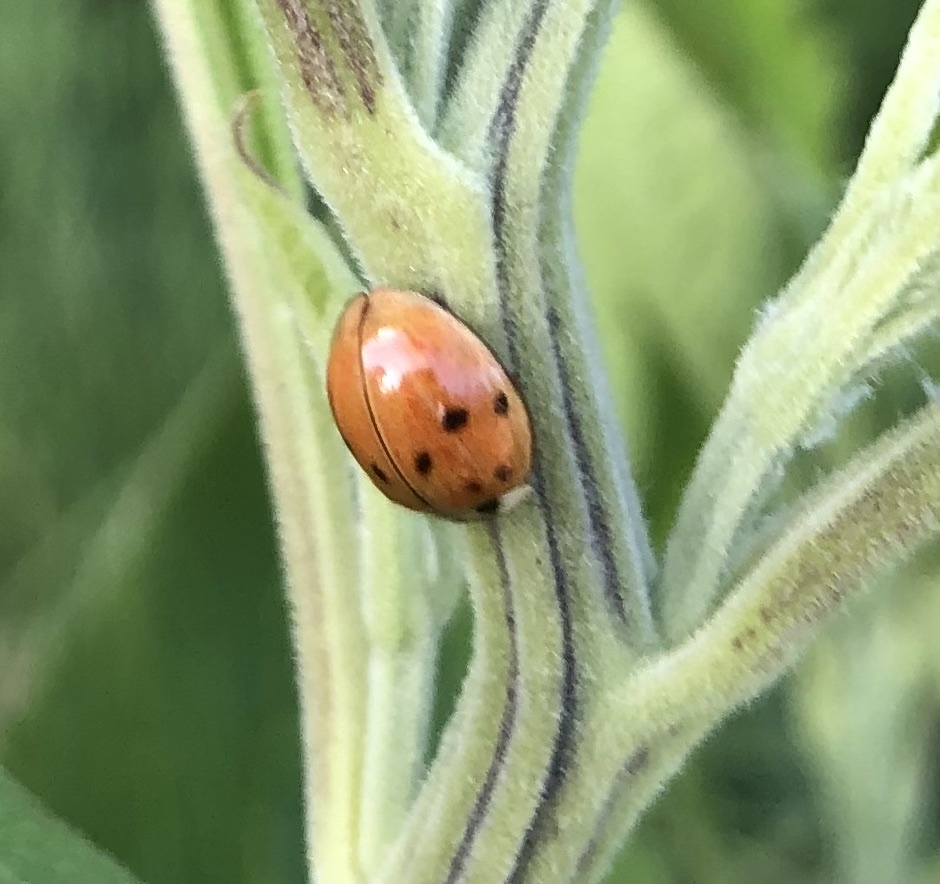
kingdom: Animalia
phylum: Arthropoda
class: Insecta
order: Coleoptera
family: Coccinellidae
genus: Harmonia
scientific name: Harmonia axyridis
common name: Harlequin ladybird
